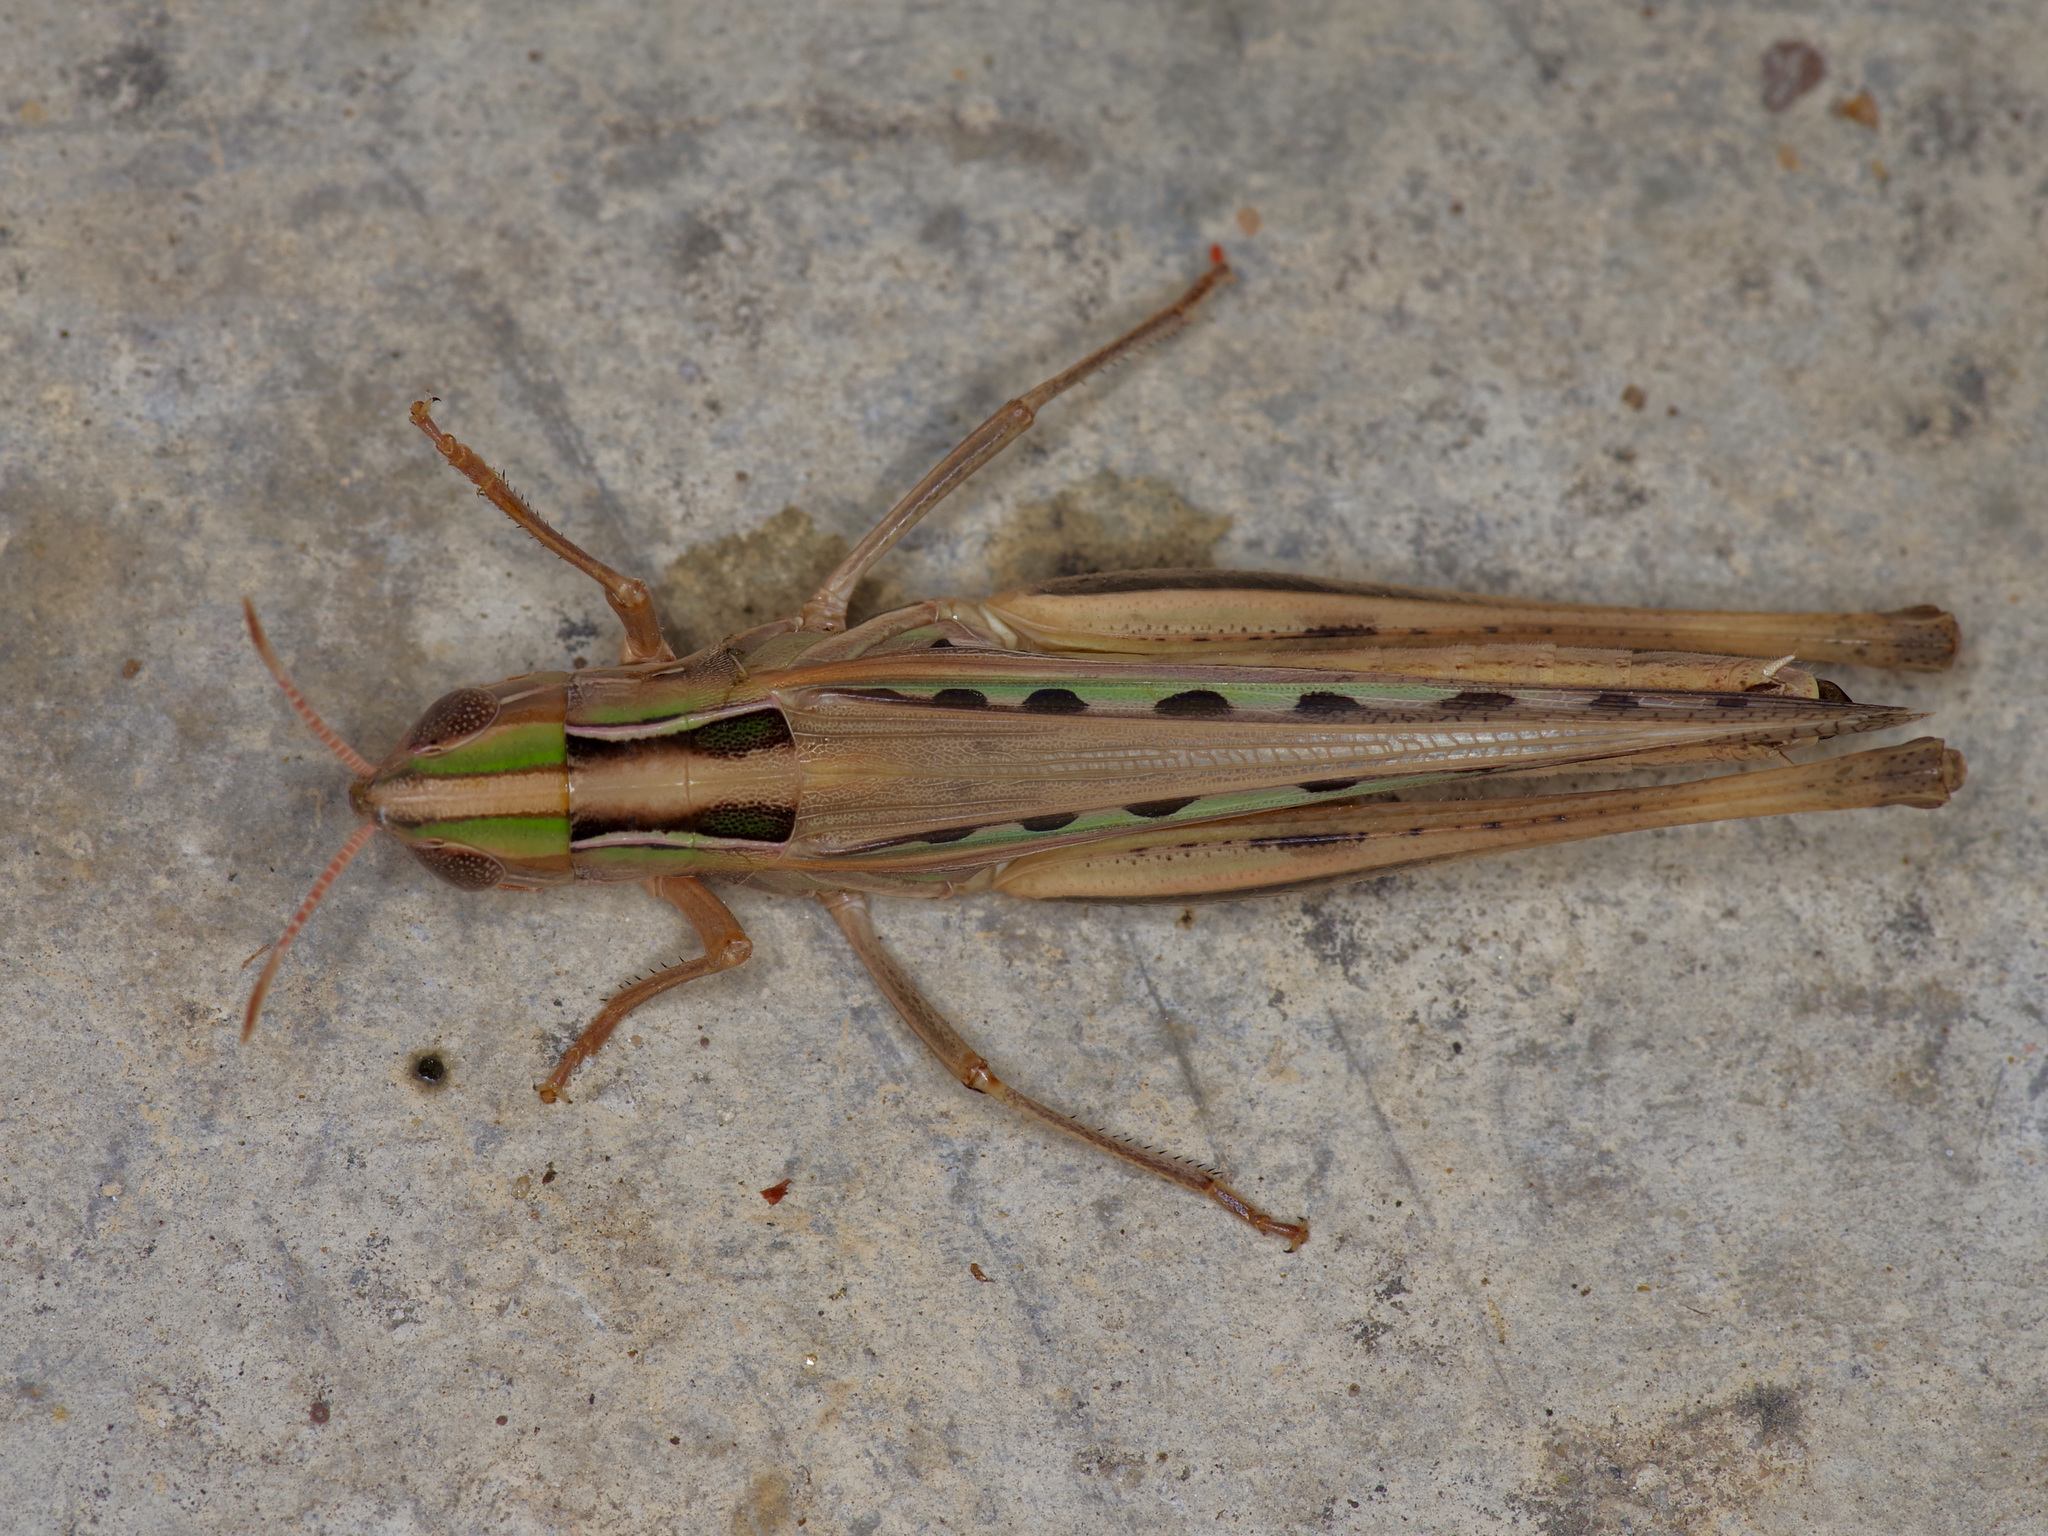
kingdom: Animalia
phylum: Arthropoda
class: Insecta
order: Orthoptera
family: Acrididae
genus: Syrbula
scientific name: Syrbula admirabilis
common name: Handsome grasshopper
